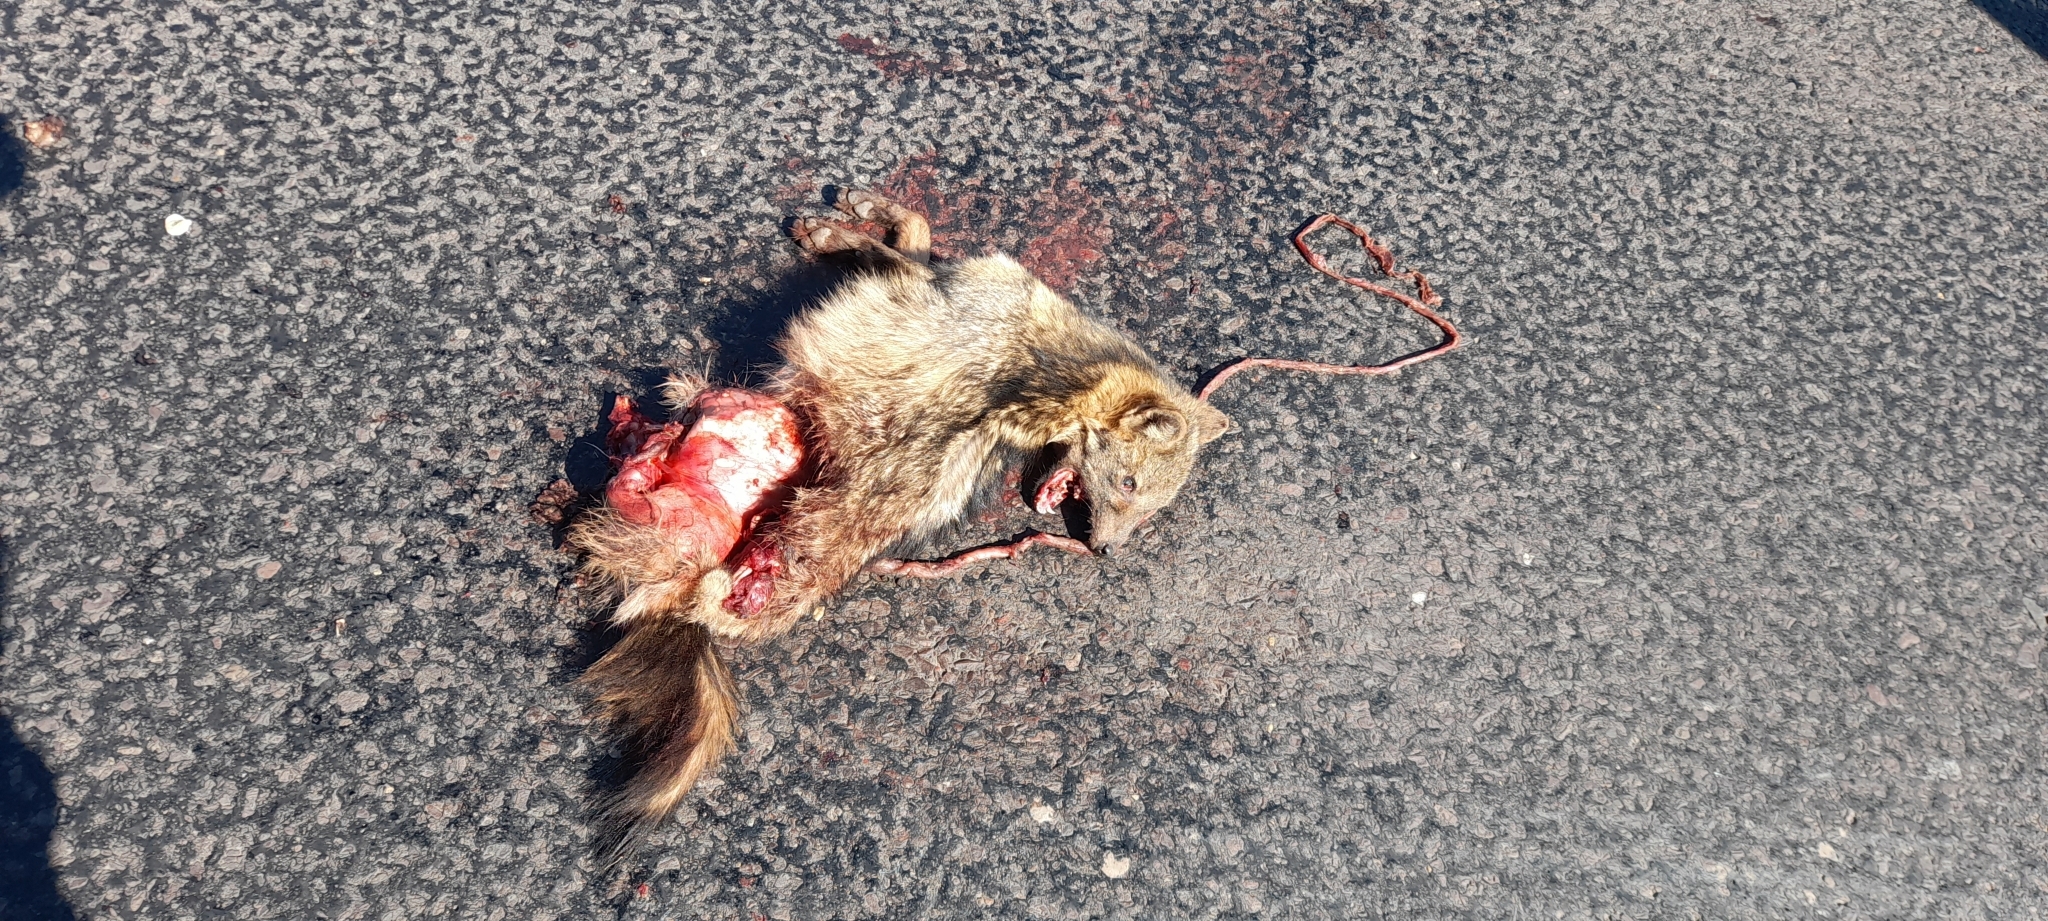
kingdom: Animalia
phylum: Chordata
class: Mammalia
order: Carnivora
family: Canidae
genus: Cerdocyon
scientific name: Cerdocyon thous
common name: Crab-eating fox
